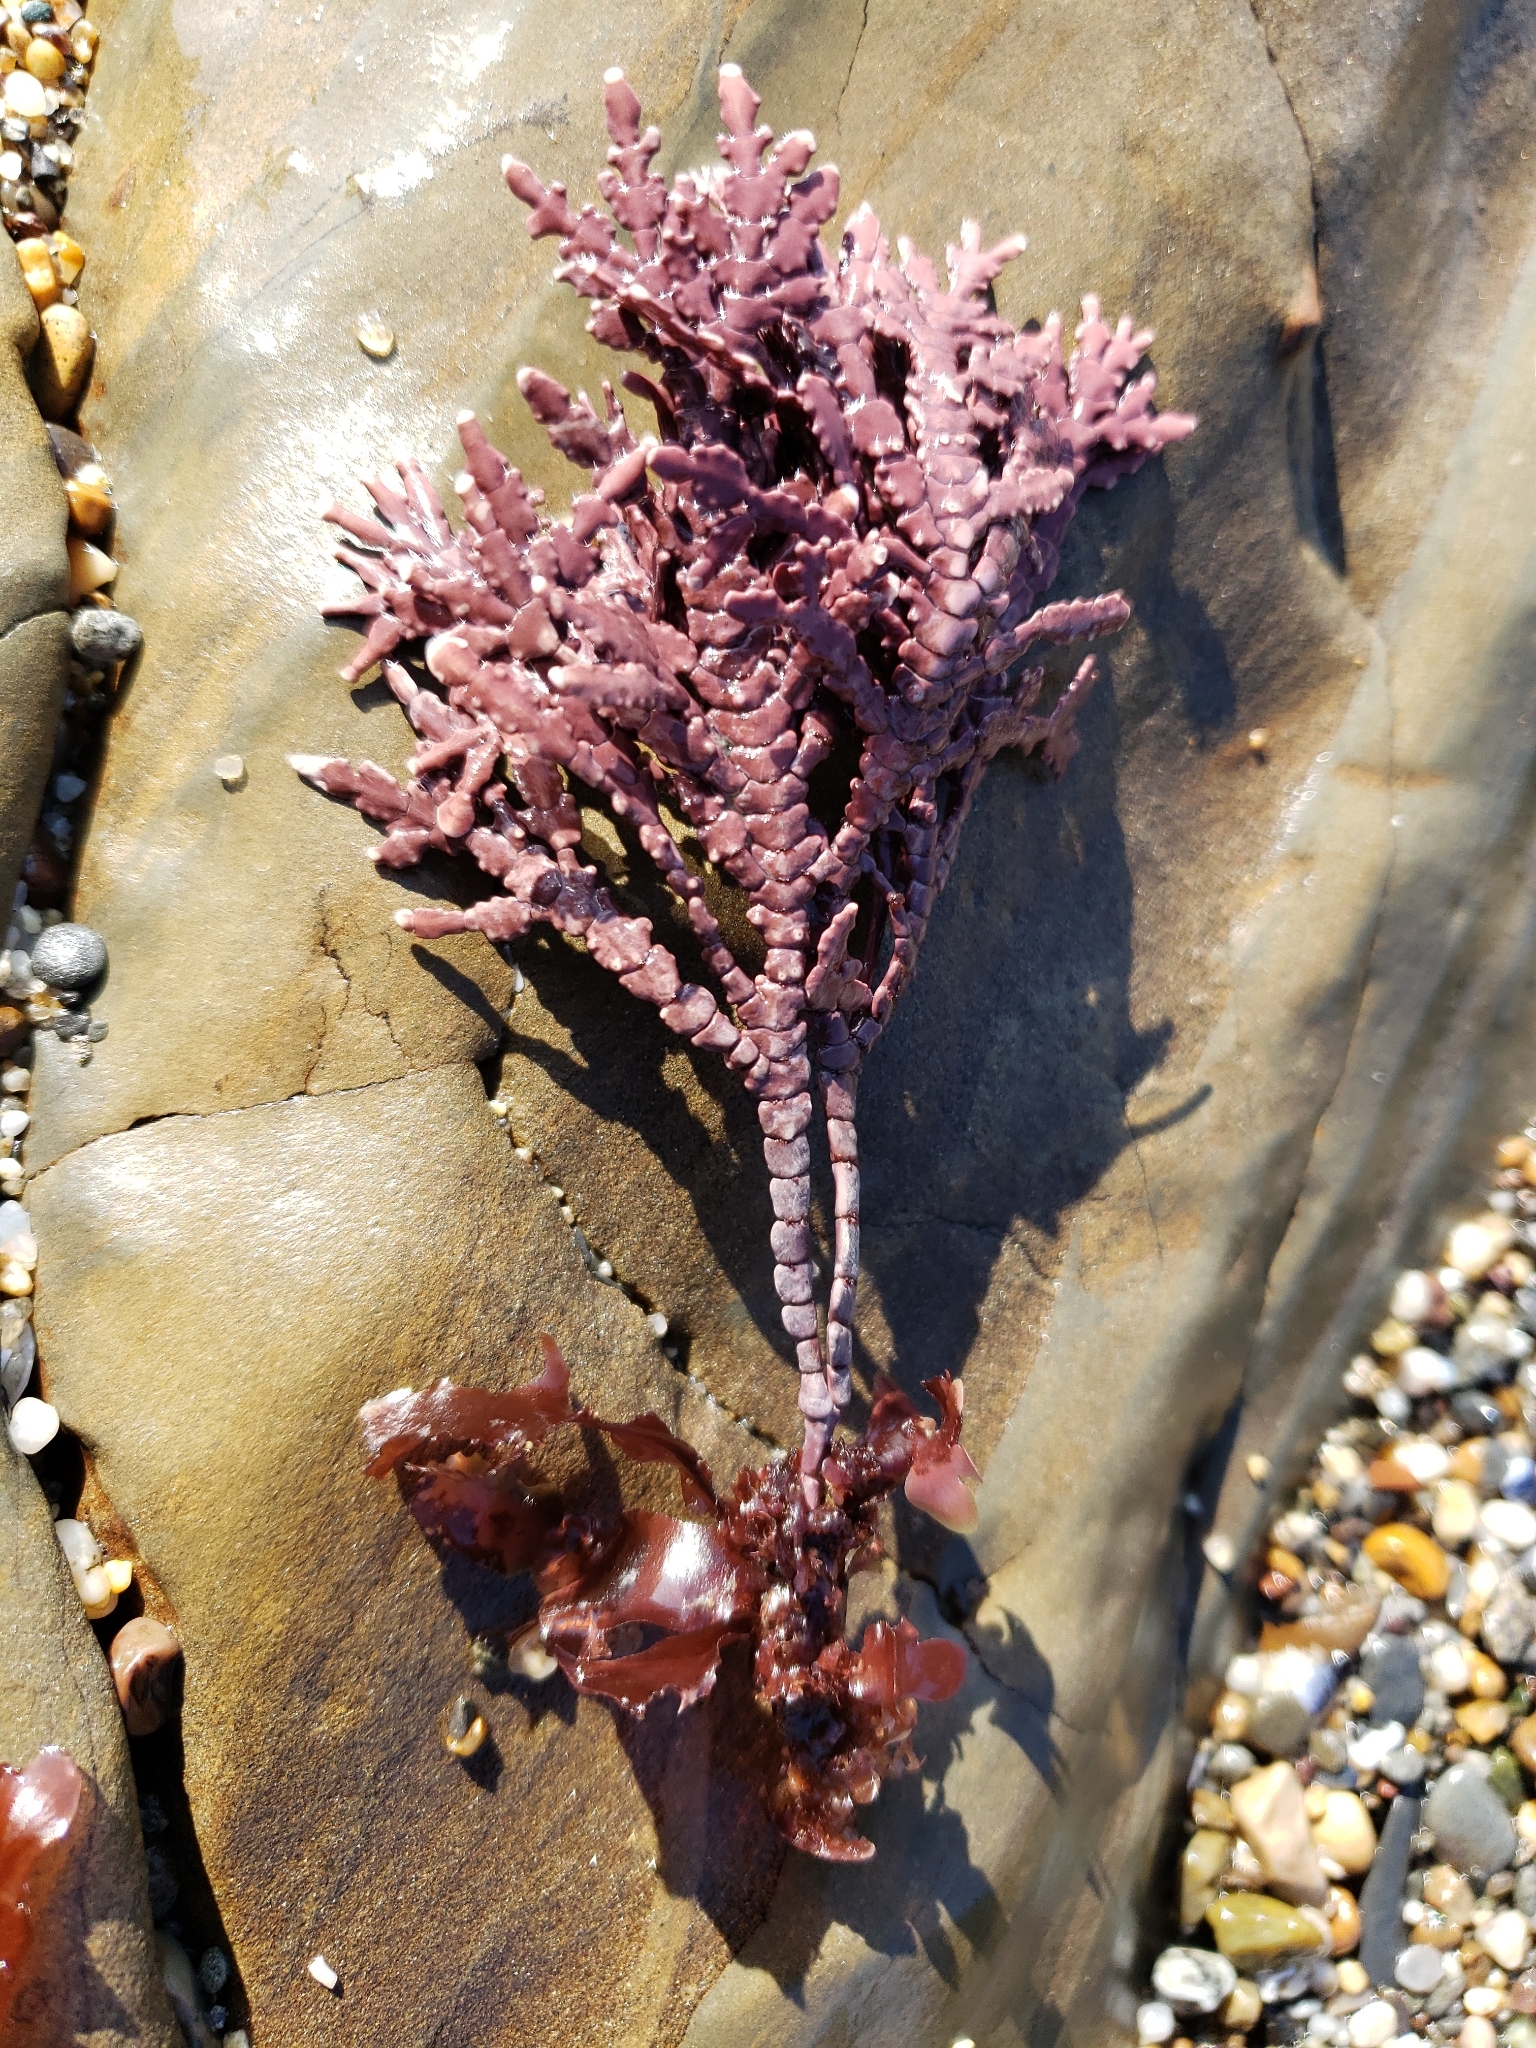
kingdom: Plantae
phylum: Rhodophyta
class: Florideophyceae
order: Corallinales
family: Corallinaceae
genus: Calliarthron
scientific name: Calliarthron tuberculosum
